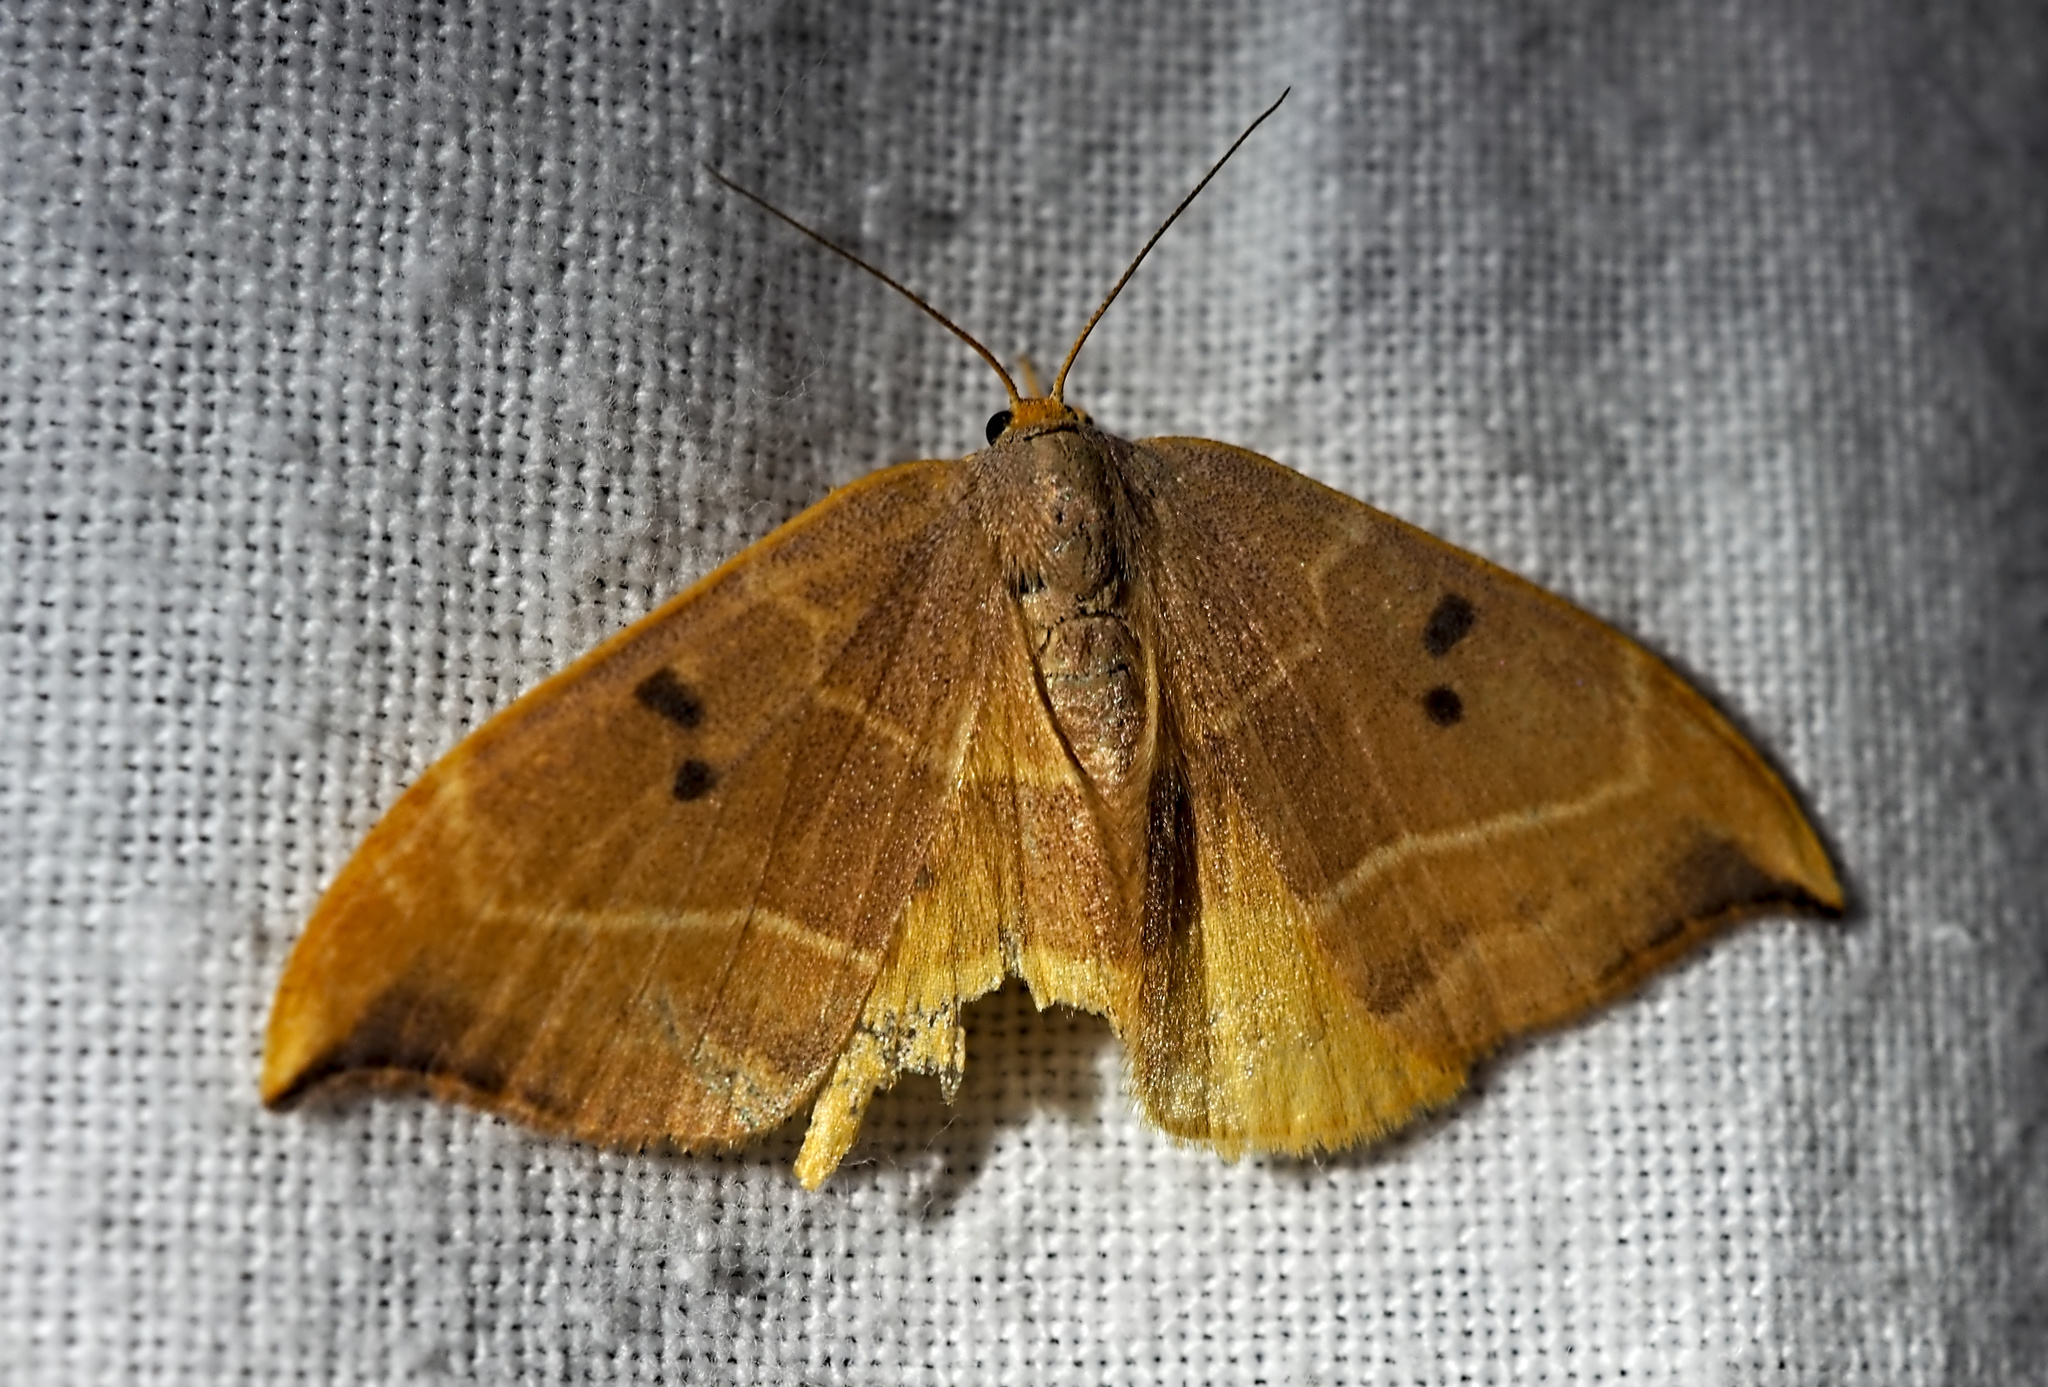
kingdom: Animalia
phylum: Arthropoda
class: Insecta
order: Lepidoptera
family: Drepanidae
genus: Watsonalla
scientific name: Watsonalla binaria
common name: Oak hook-tip
